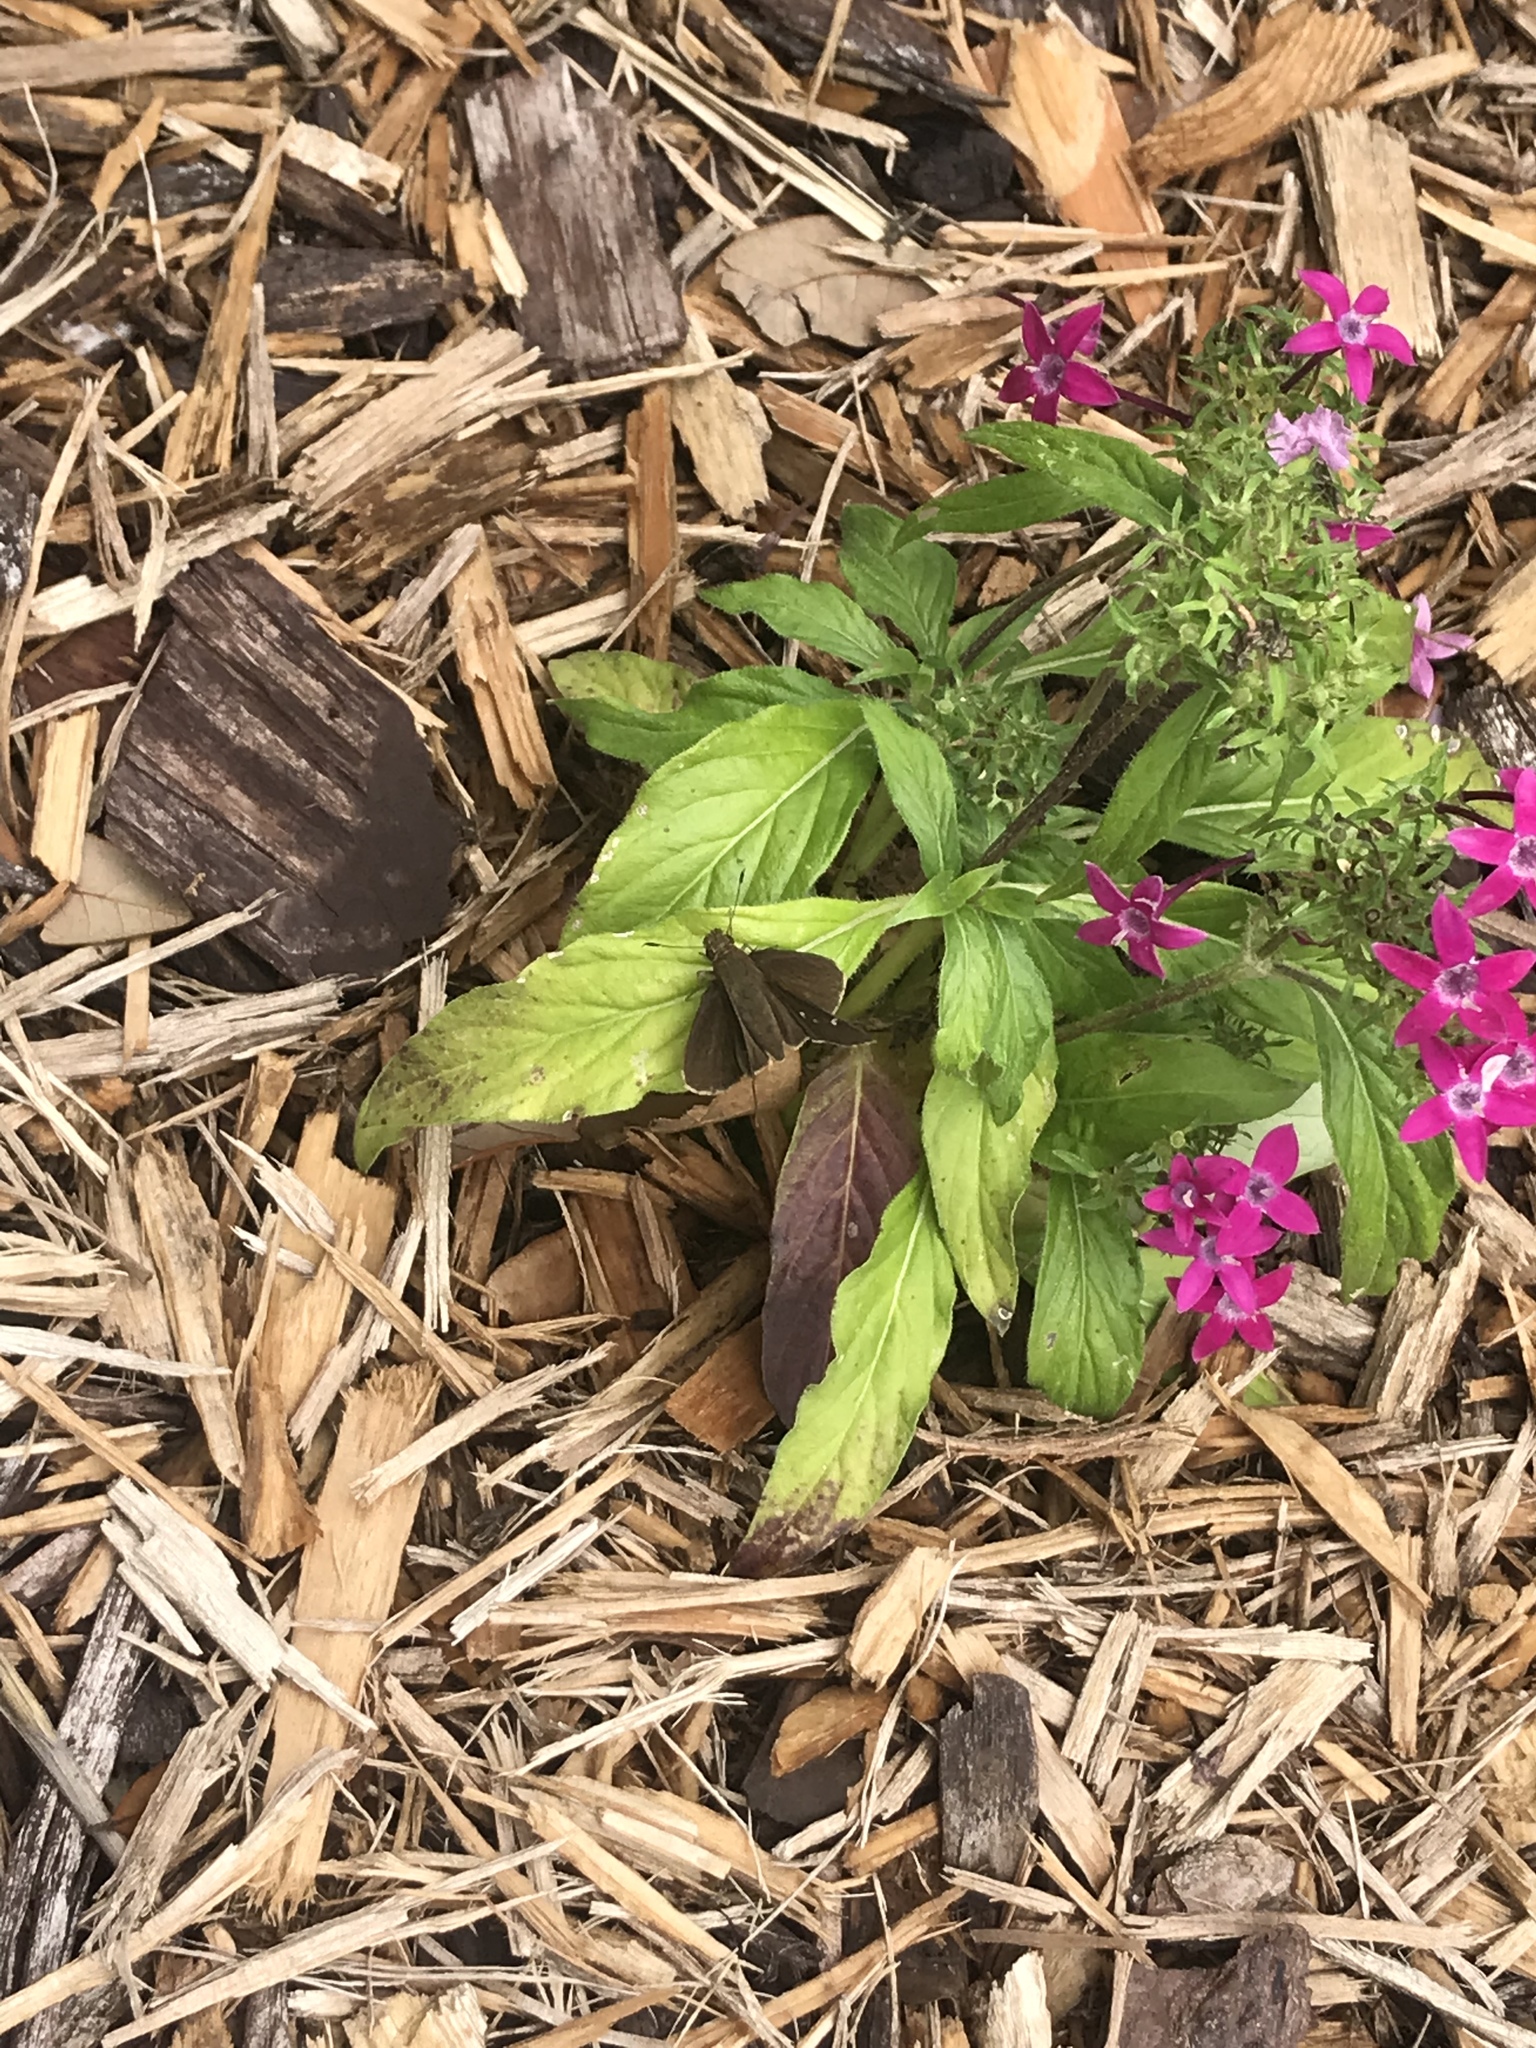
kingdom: Animalia
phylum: Arthropoda
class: Insecta
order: Lepidoptera
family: Hesperiidae
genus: Lerema
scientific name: Lerema accius
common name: Clouded skipper
